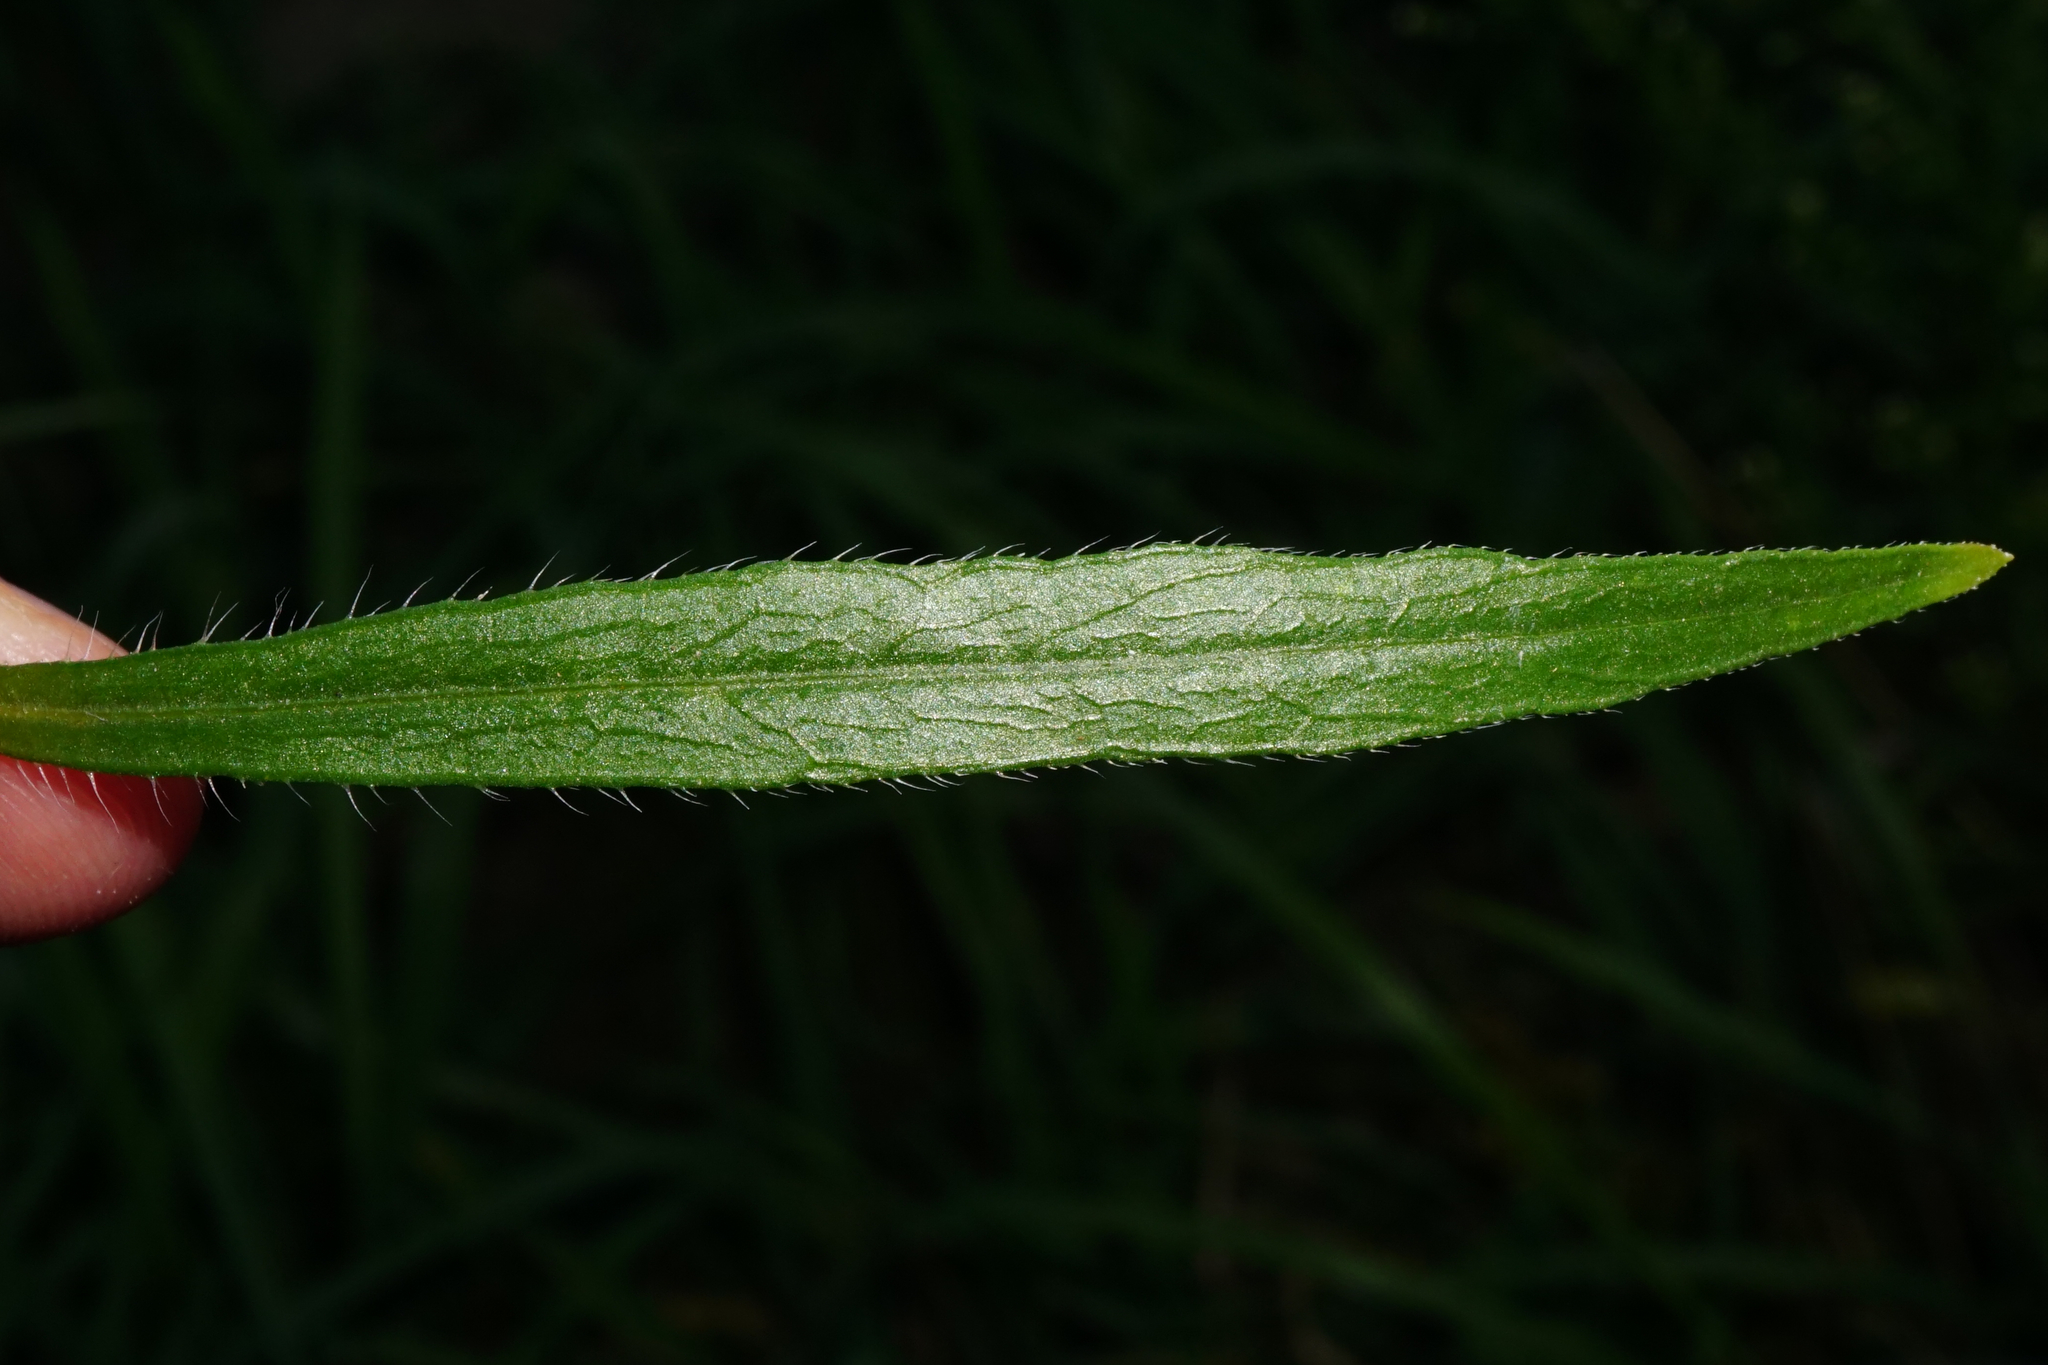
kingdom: Plantae
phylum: Tracheophyta
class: Magnoliopsida
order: Asterales
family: Asteraceae
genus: Erigeron
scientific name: Erigeron canadensis
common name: Canadian fleabane
